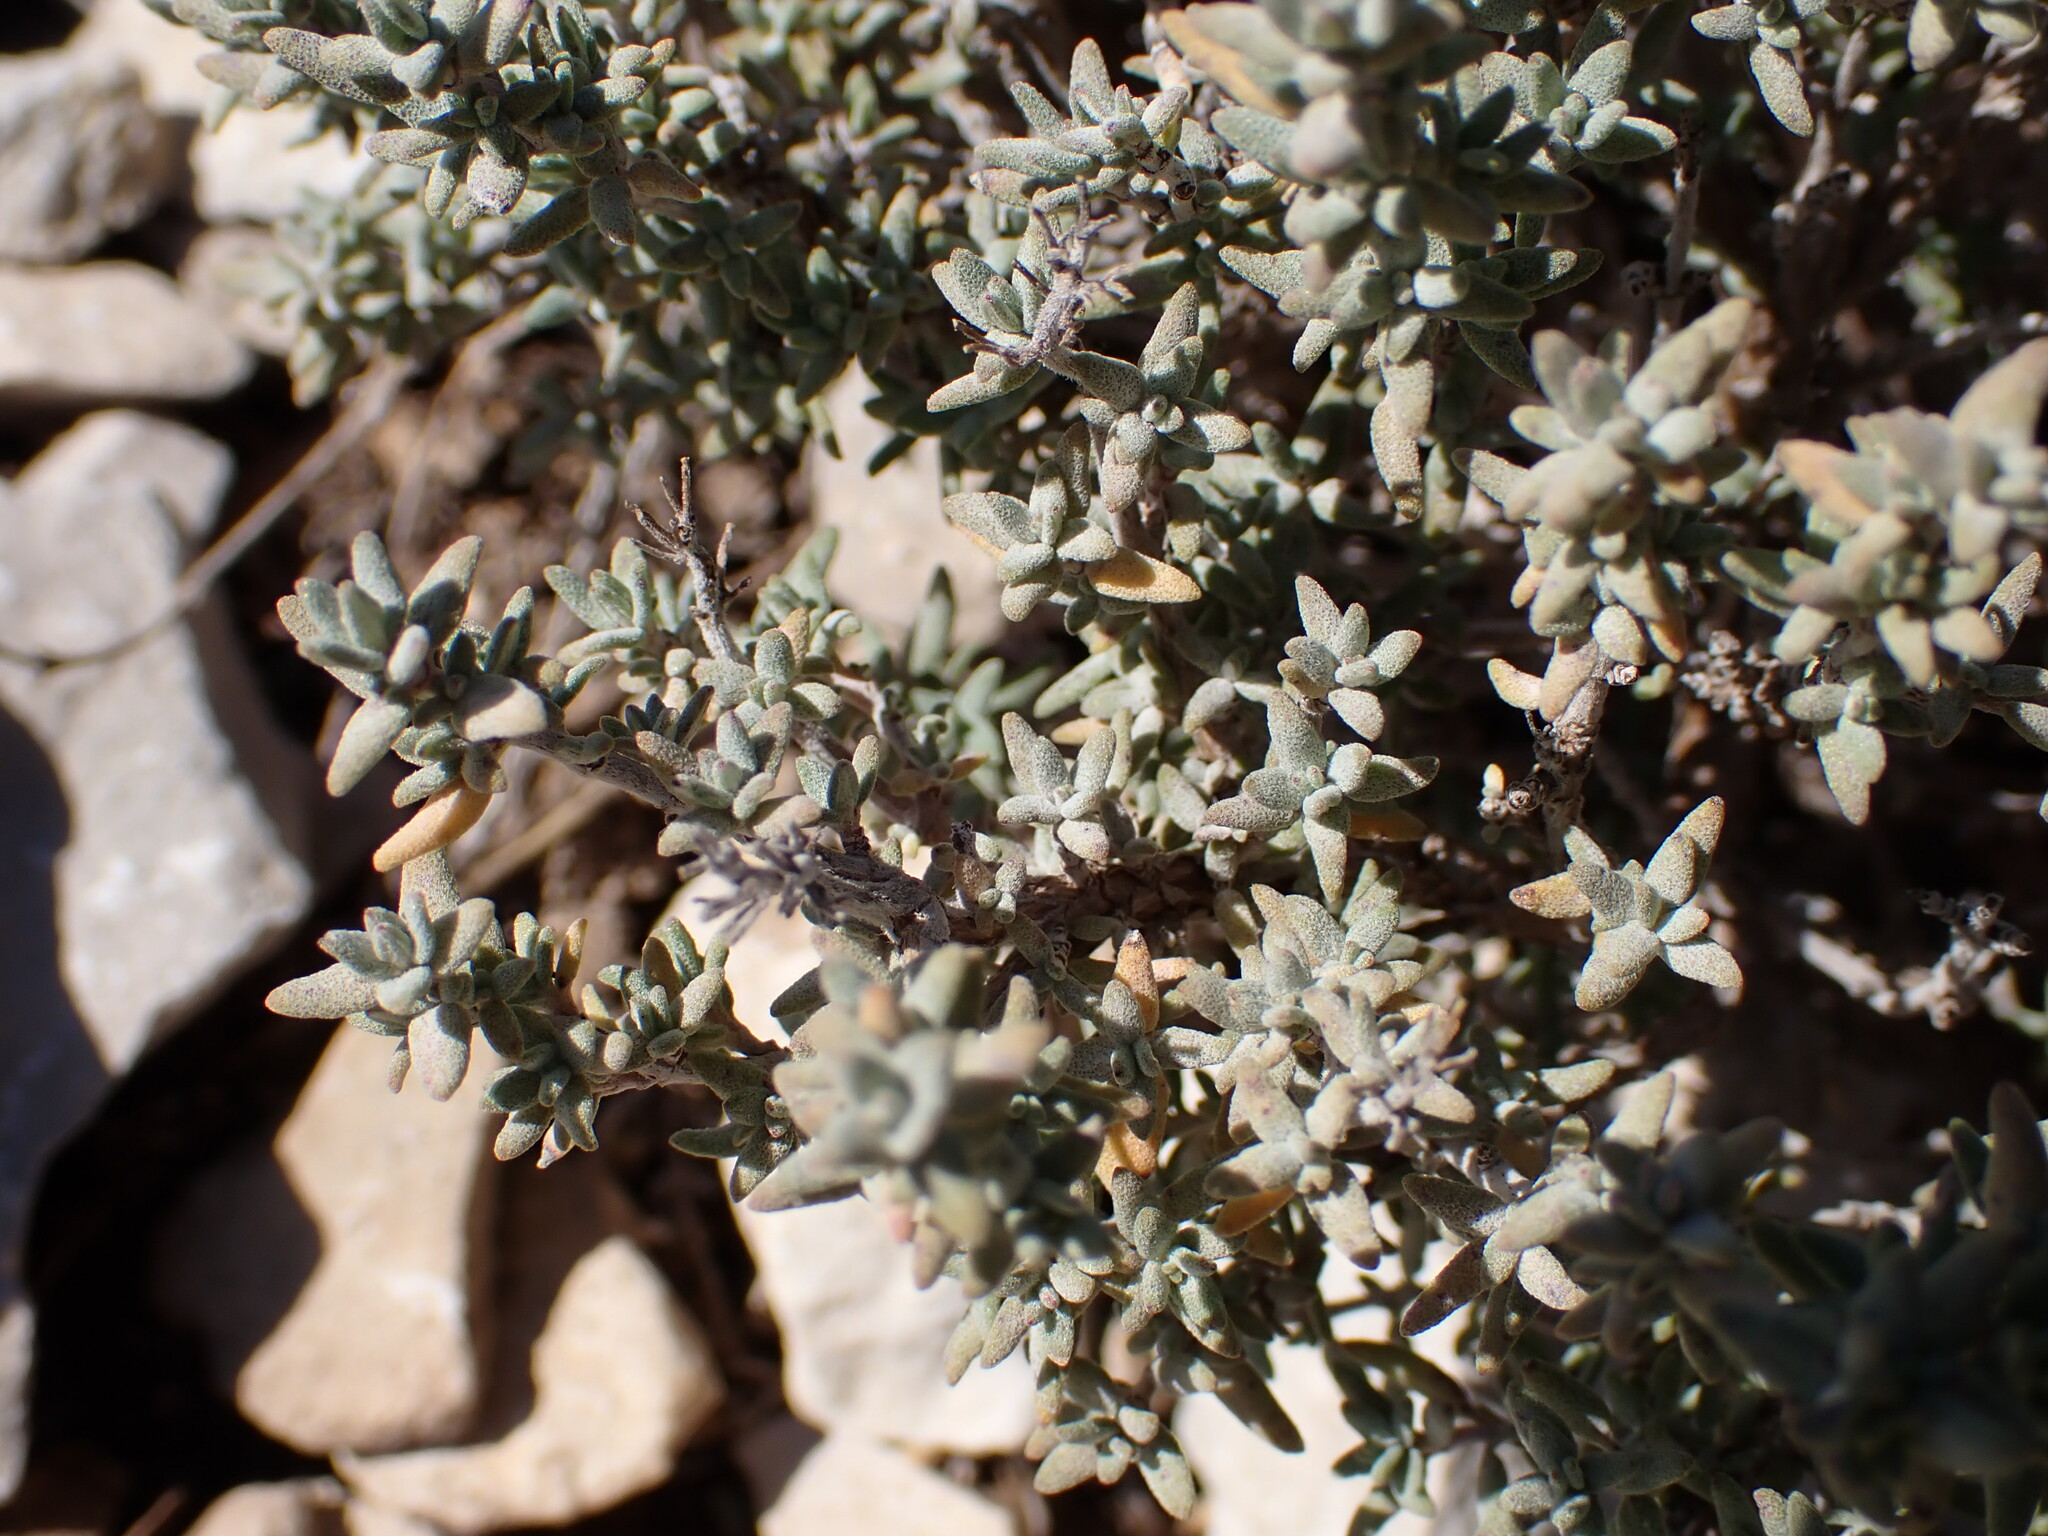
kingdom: Plantae
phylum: Tracheophyta
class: Magnoliopsida
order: Lamiales
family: Lamiaceae
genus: Thymus
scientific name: Thymus vulgaris
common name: Garden thyme
